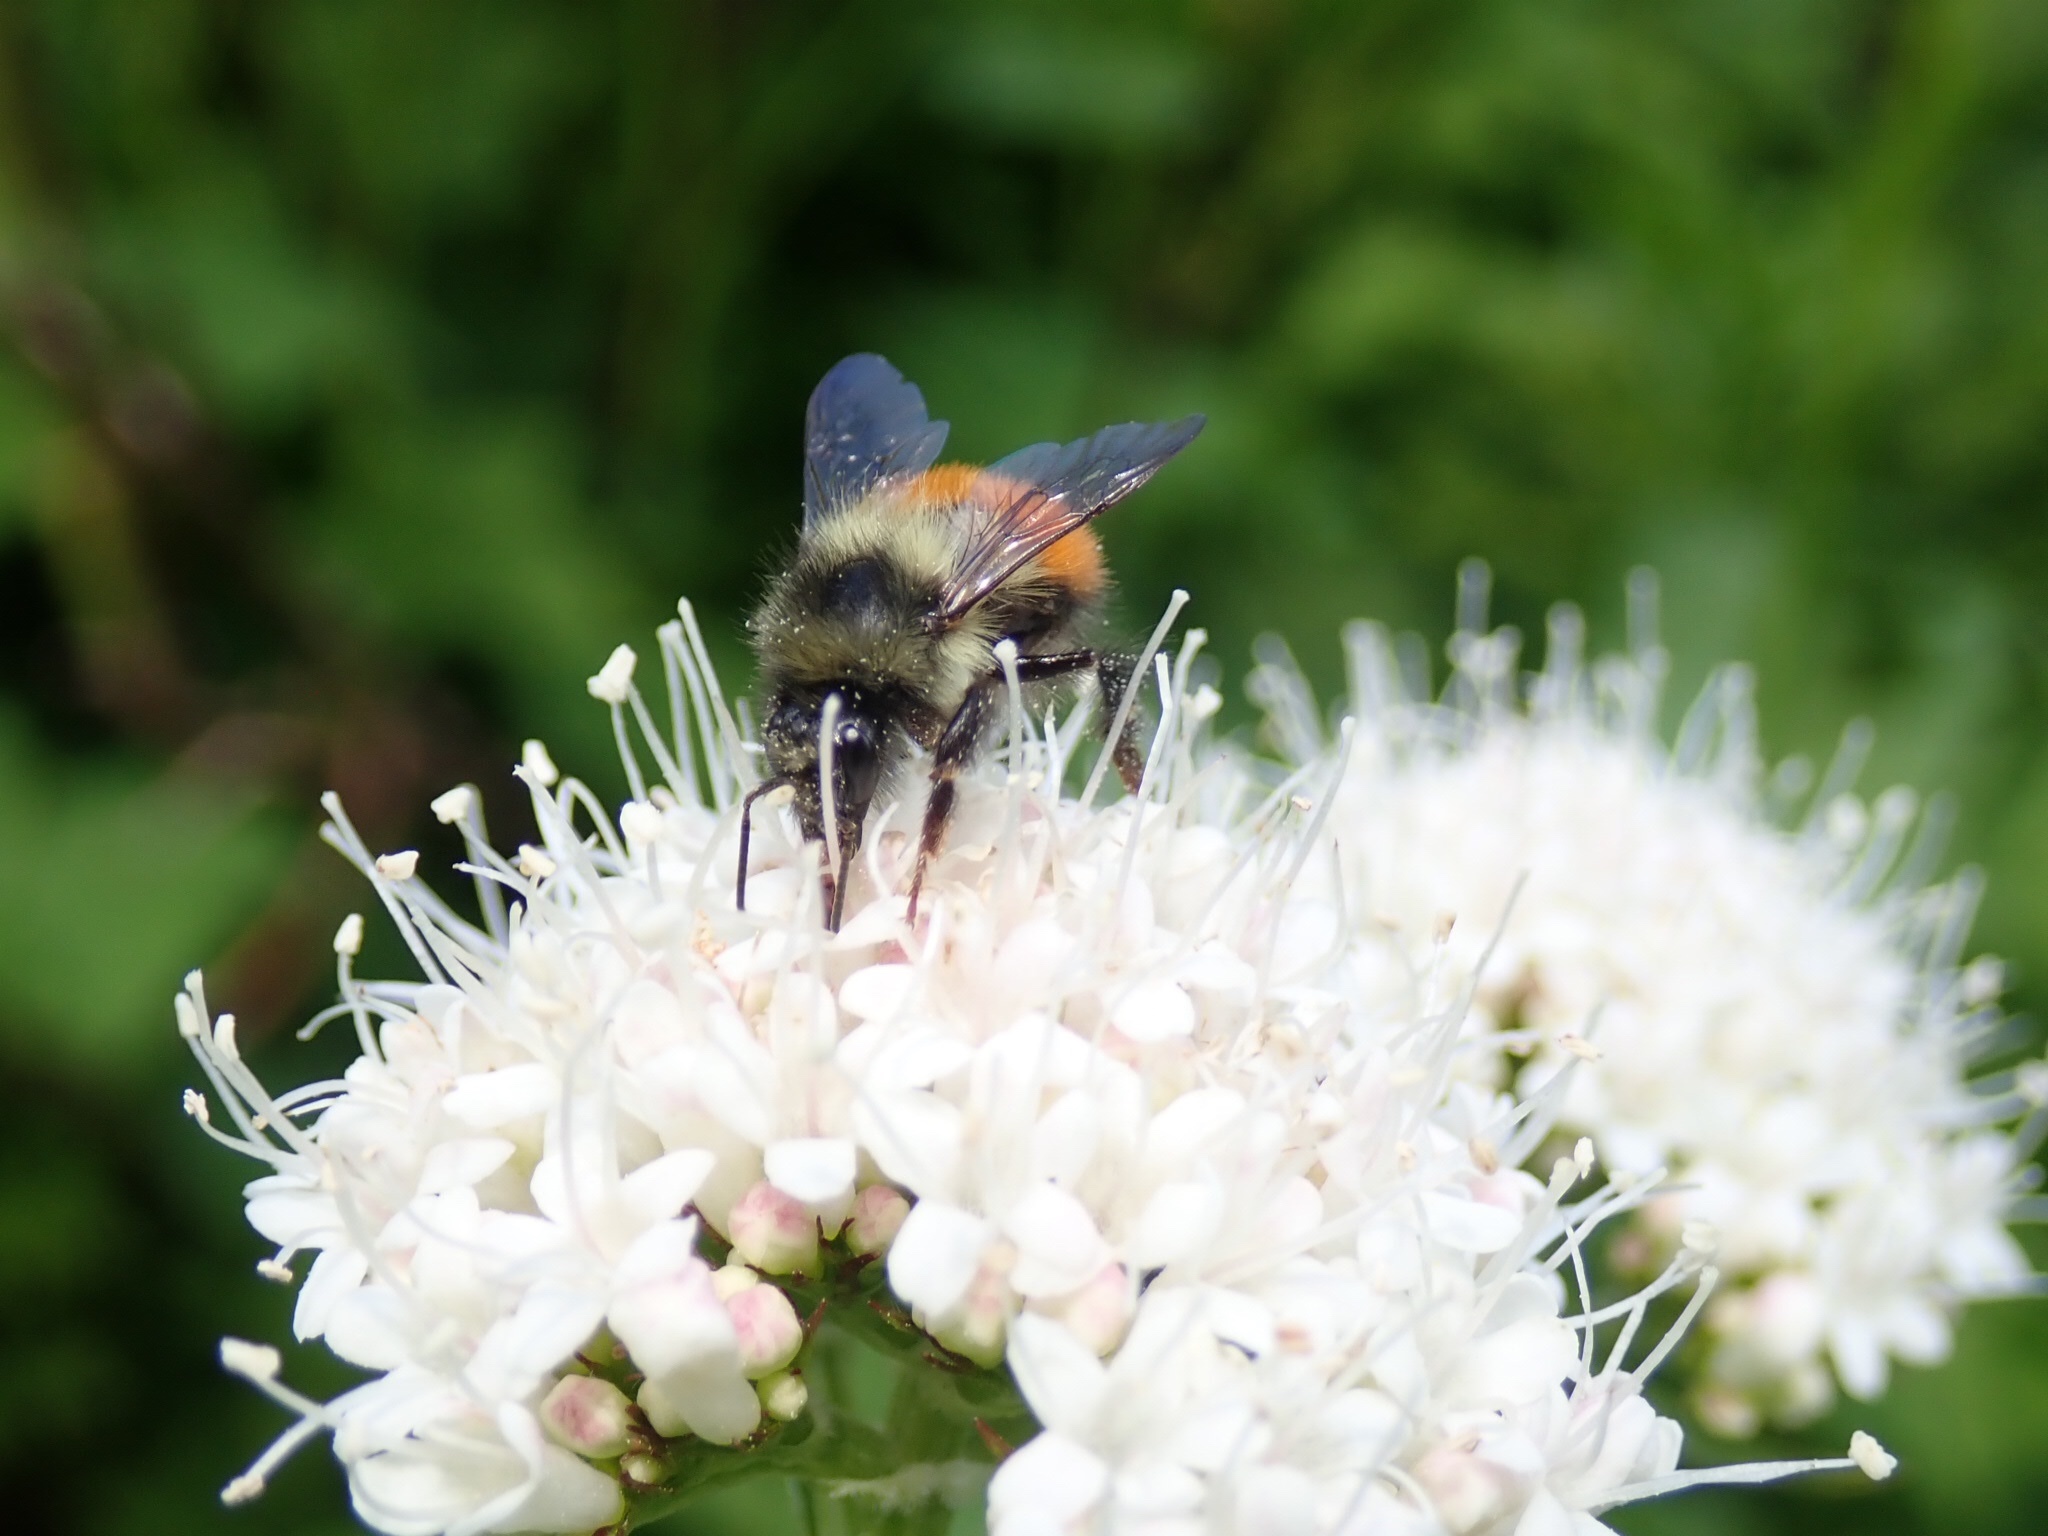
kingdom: Animalia
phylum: Arthropoda
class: Insecta
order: Hymenoptera
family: Apidae
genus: Bombus
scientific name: Bombus melanopygus
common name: Black tail bumble bee
